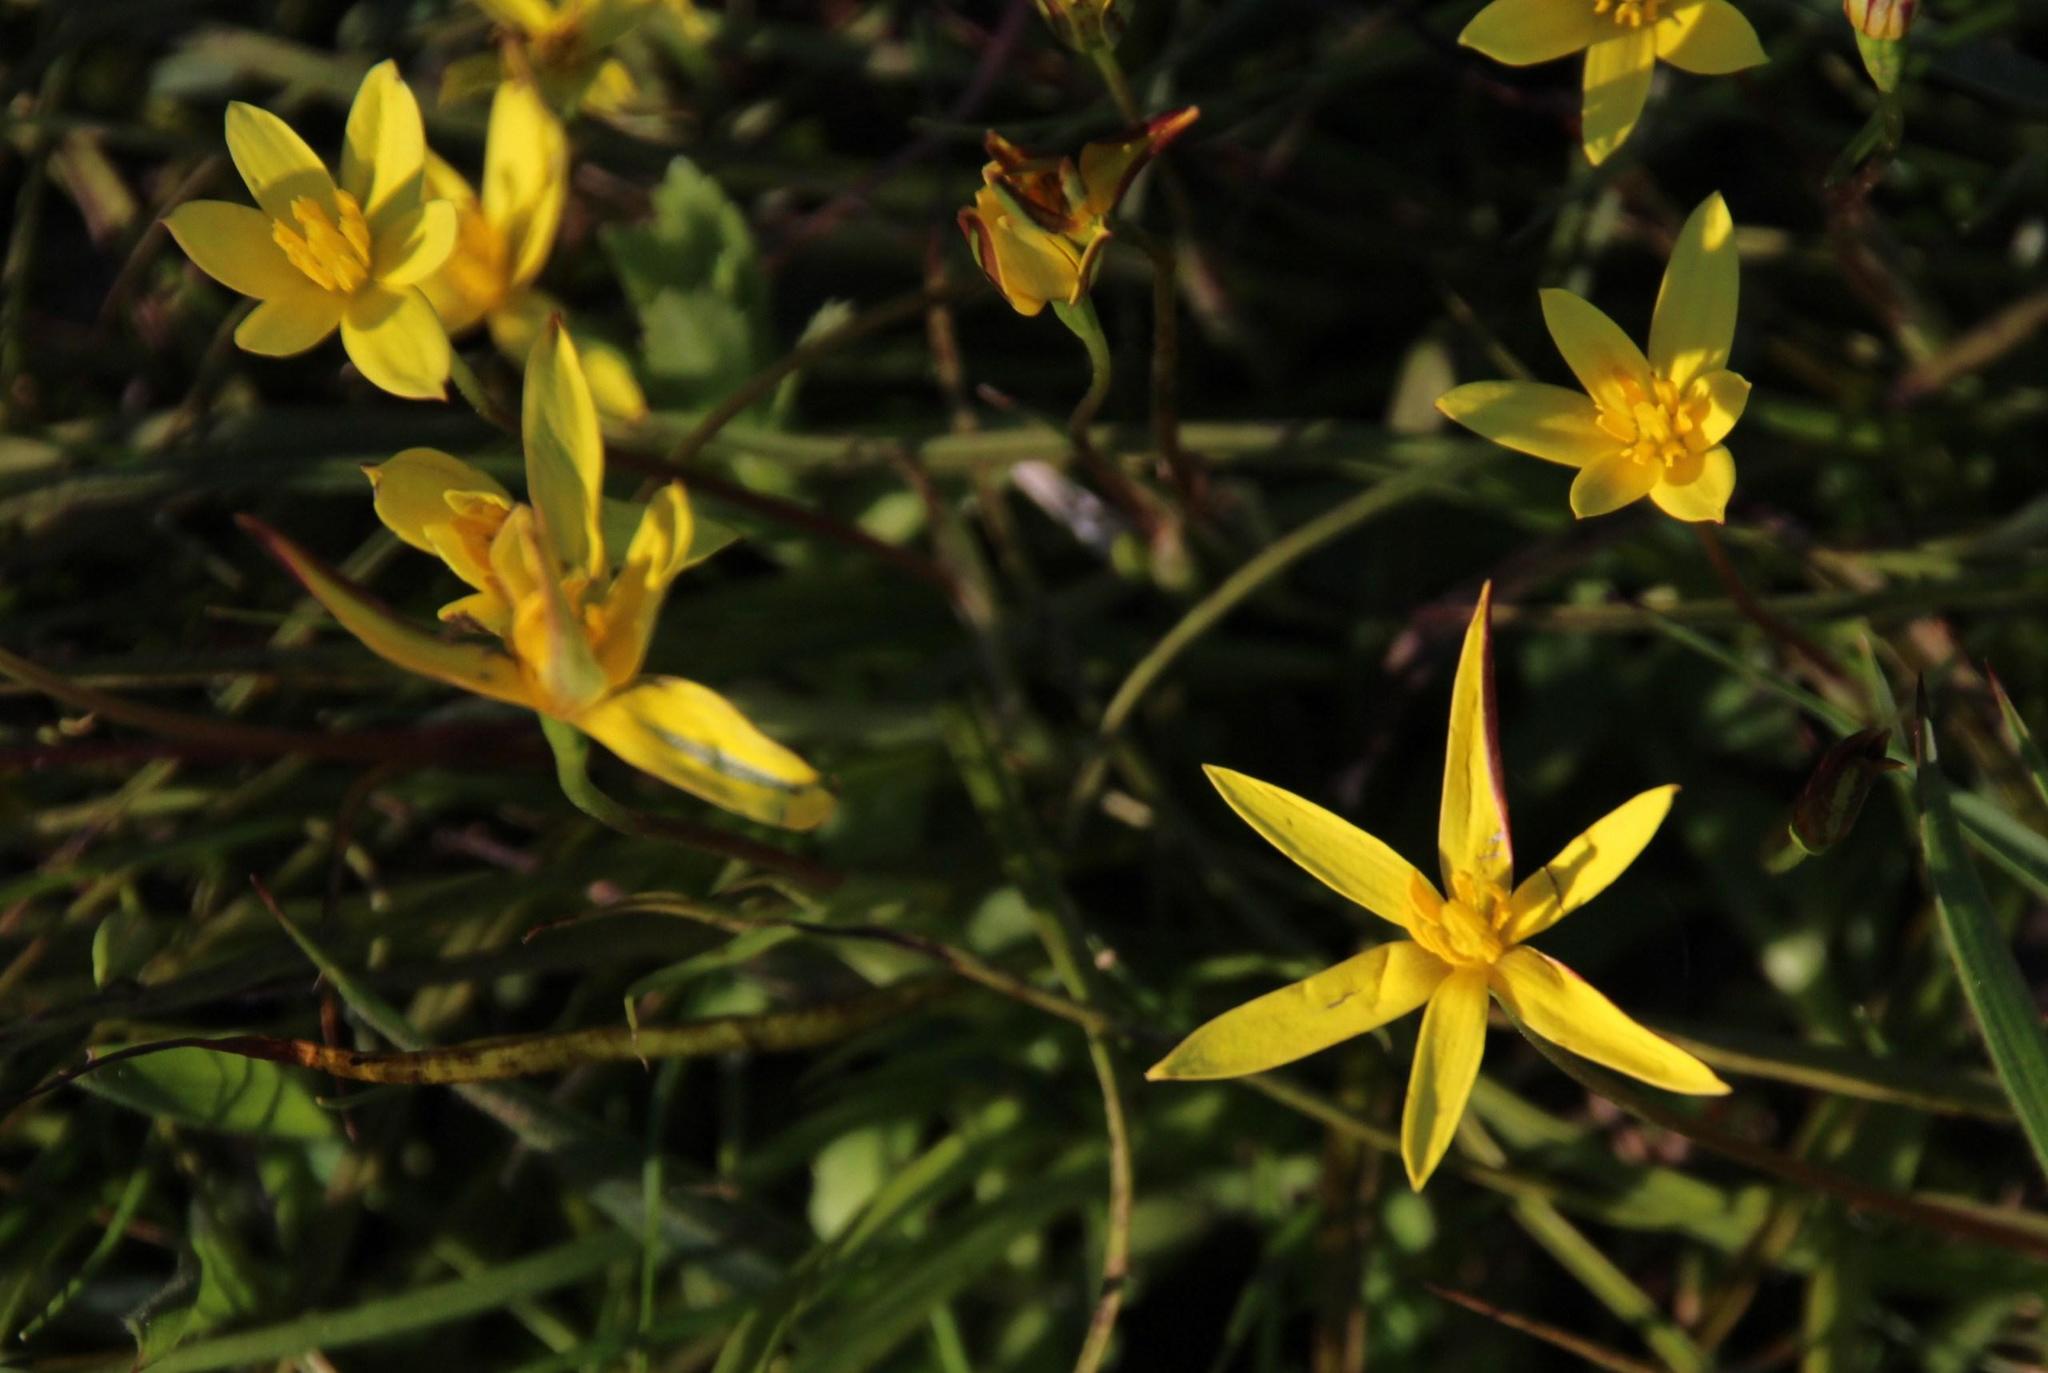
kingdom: Plantae
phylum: Tracheophyta
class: Liliopsida
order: Asparagales
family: Hypoxidaceae
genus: Pauridia
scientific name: Pauridia capensis
